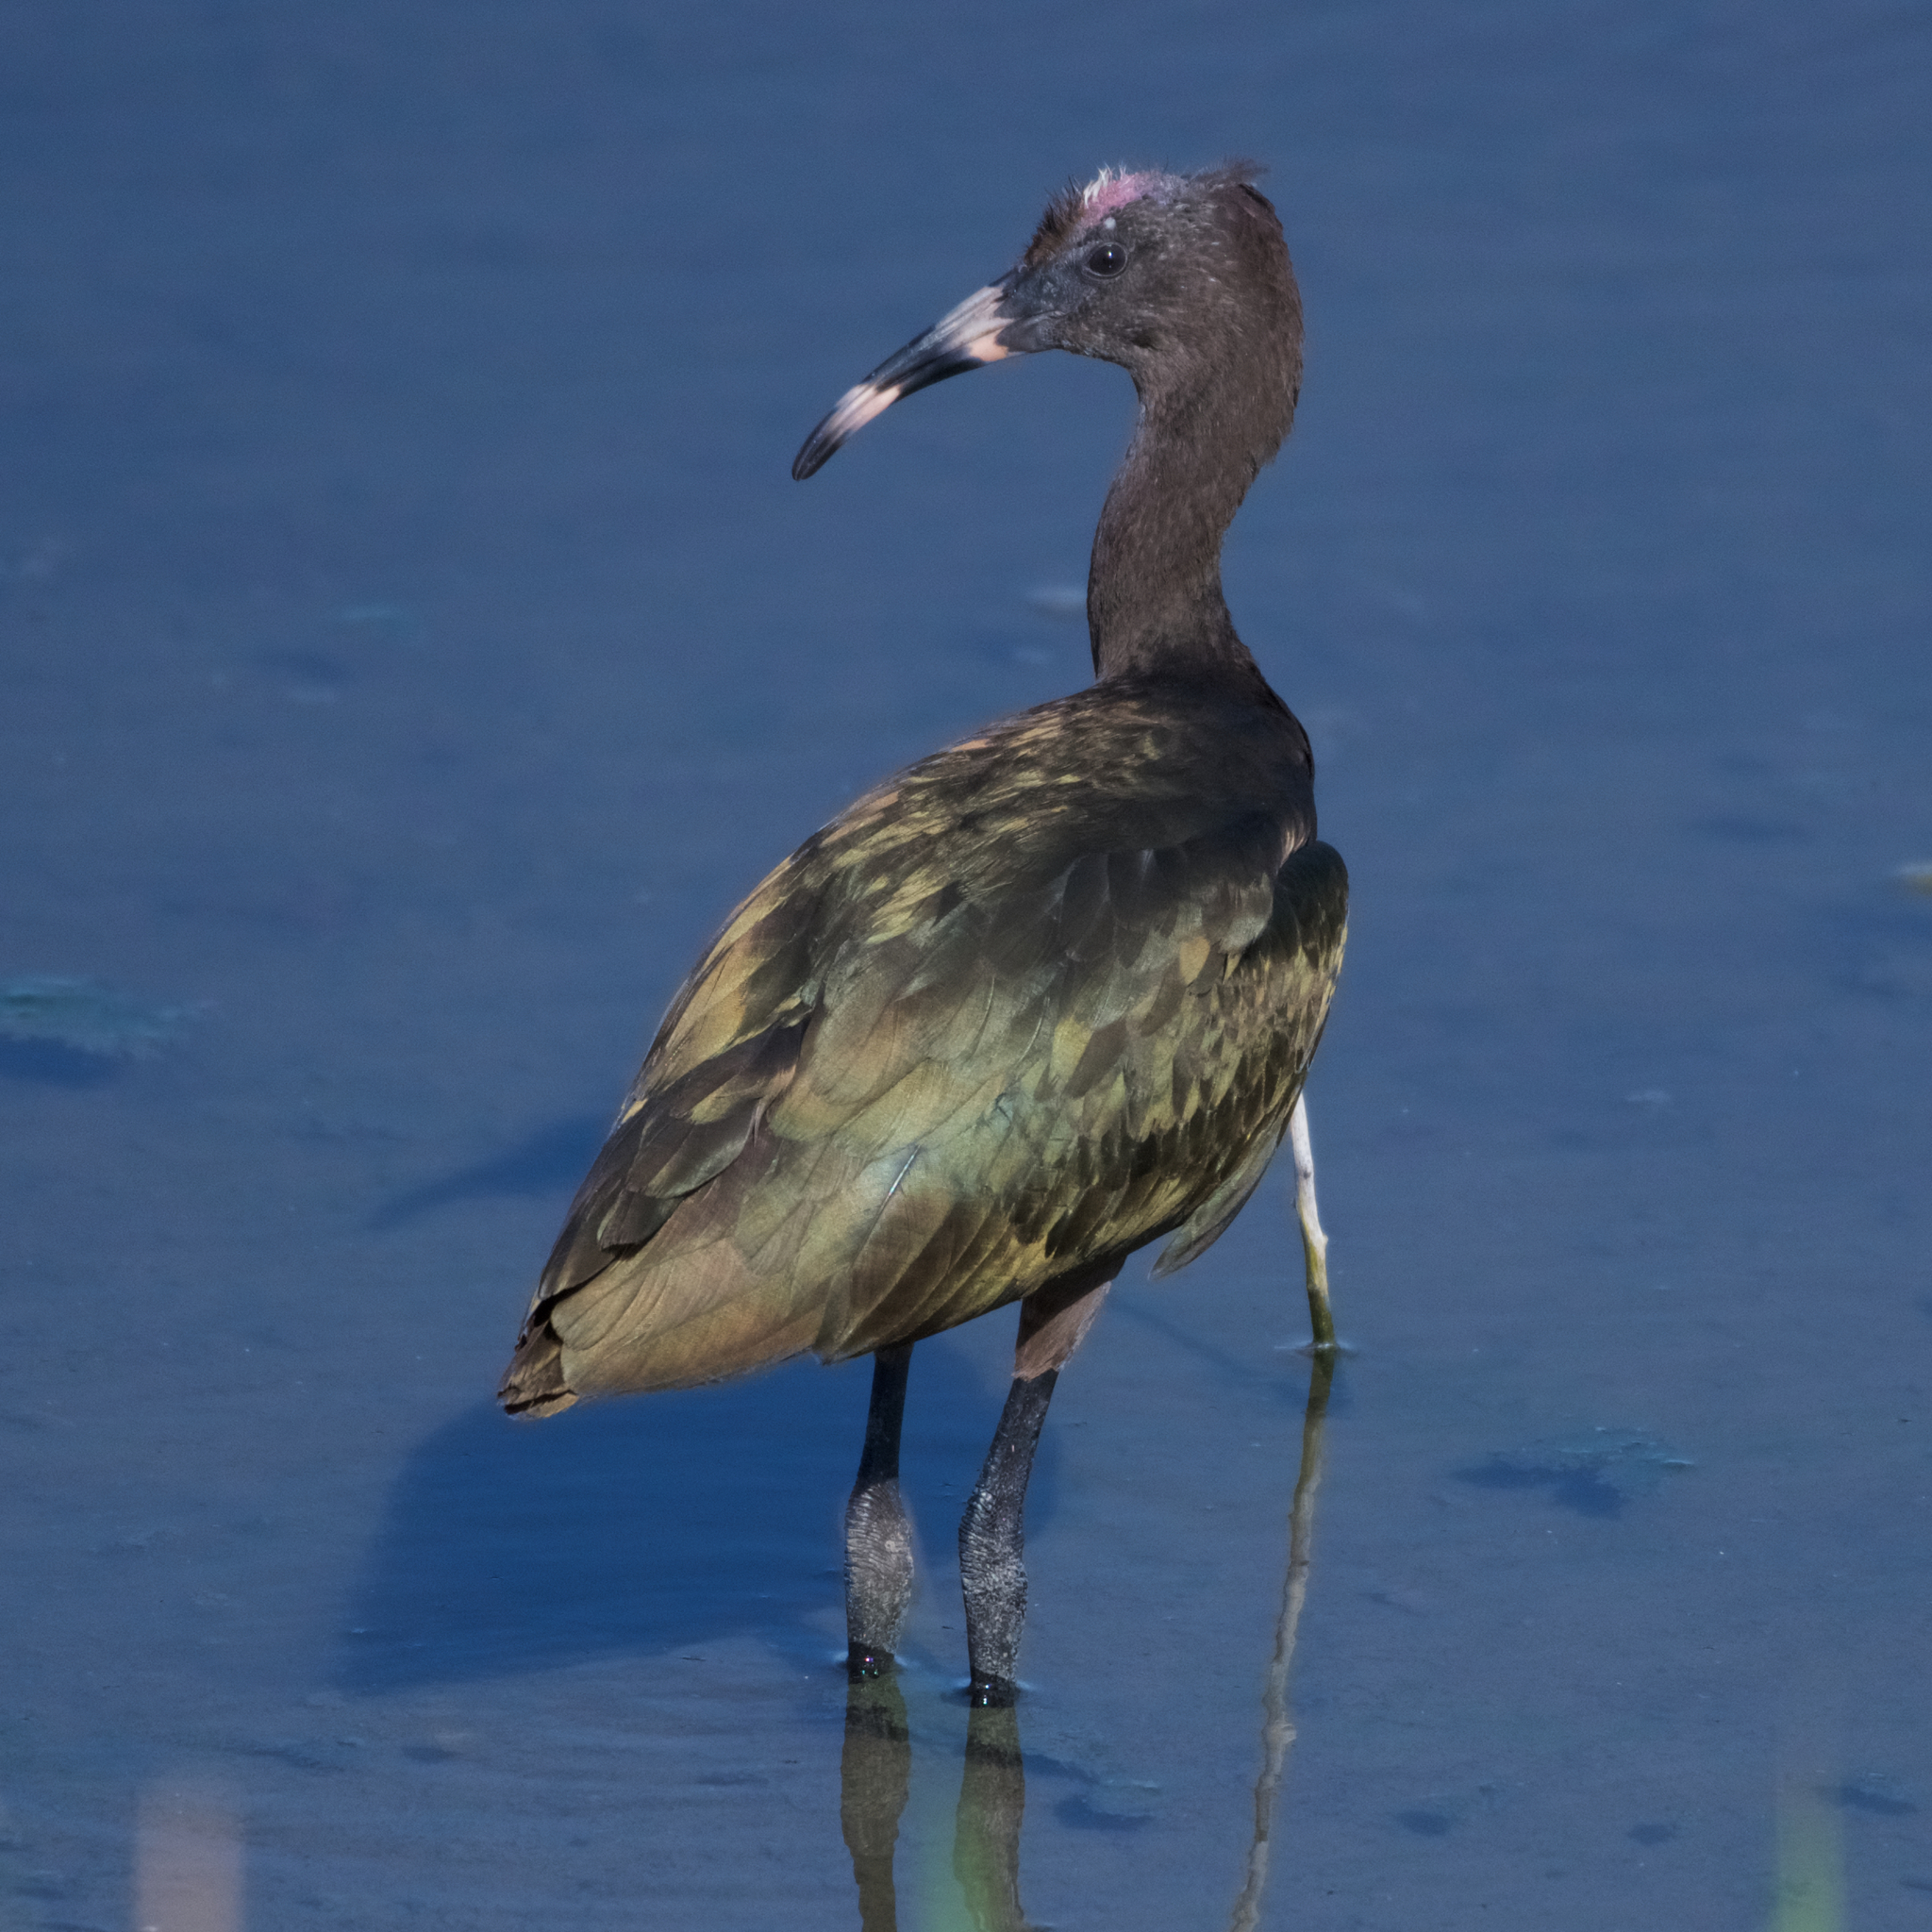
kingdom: Animalia
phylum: Chordata
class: Aves
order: Pelecaniformes
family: Threskiornithidae
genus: Plegadis
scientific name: Plegadis chihi
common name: White-faced ibis
